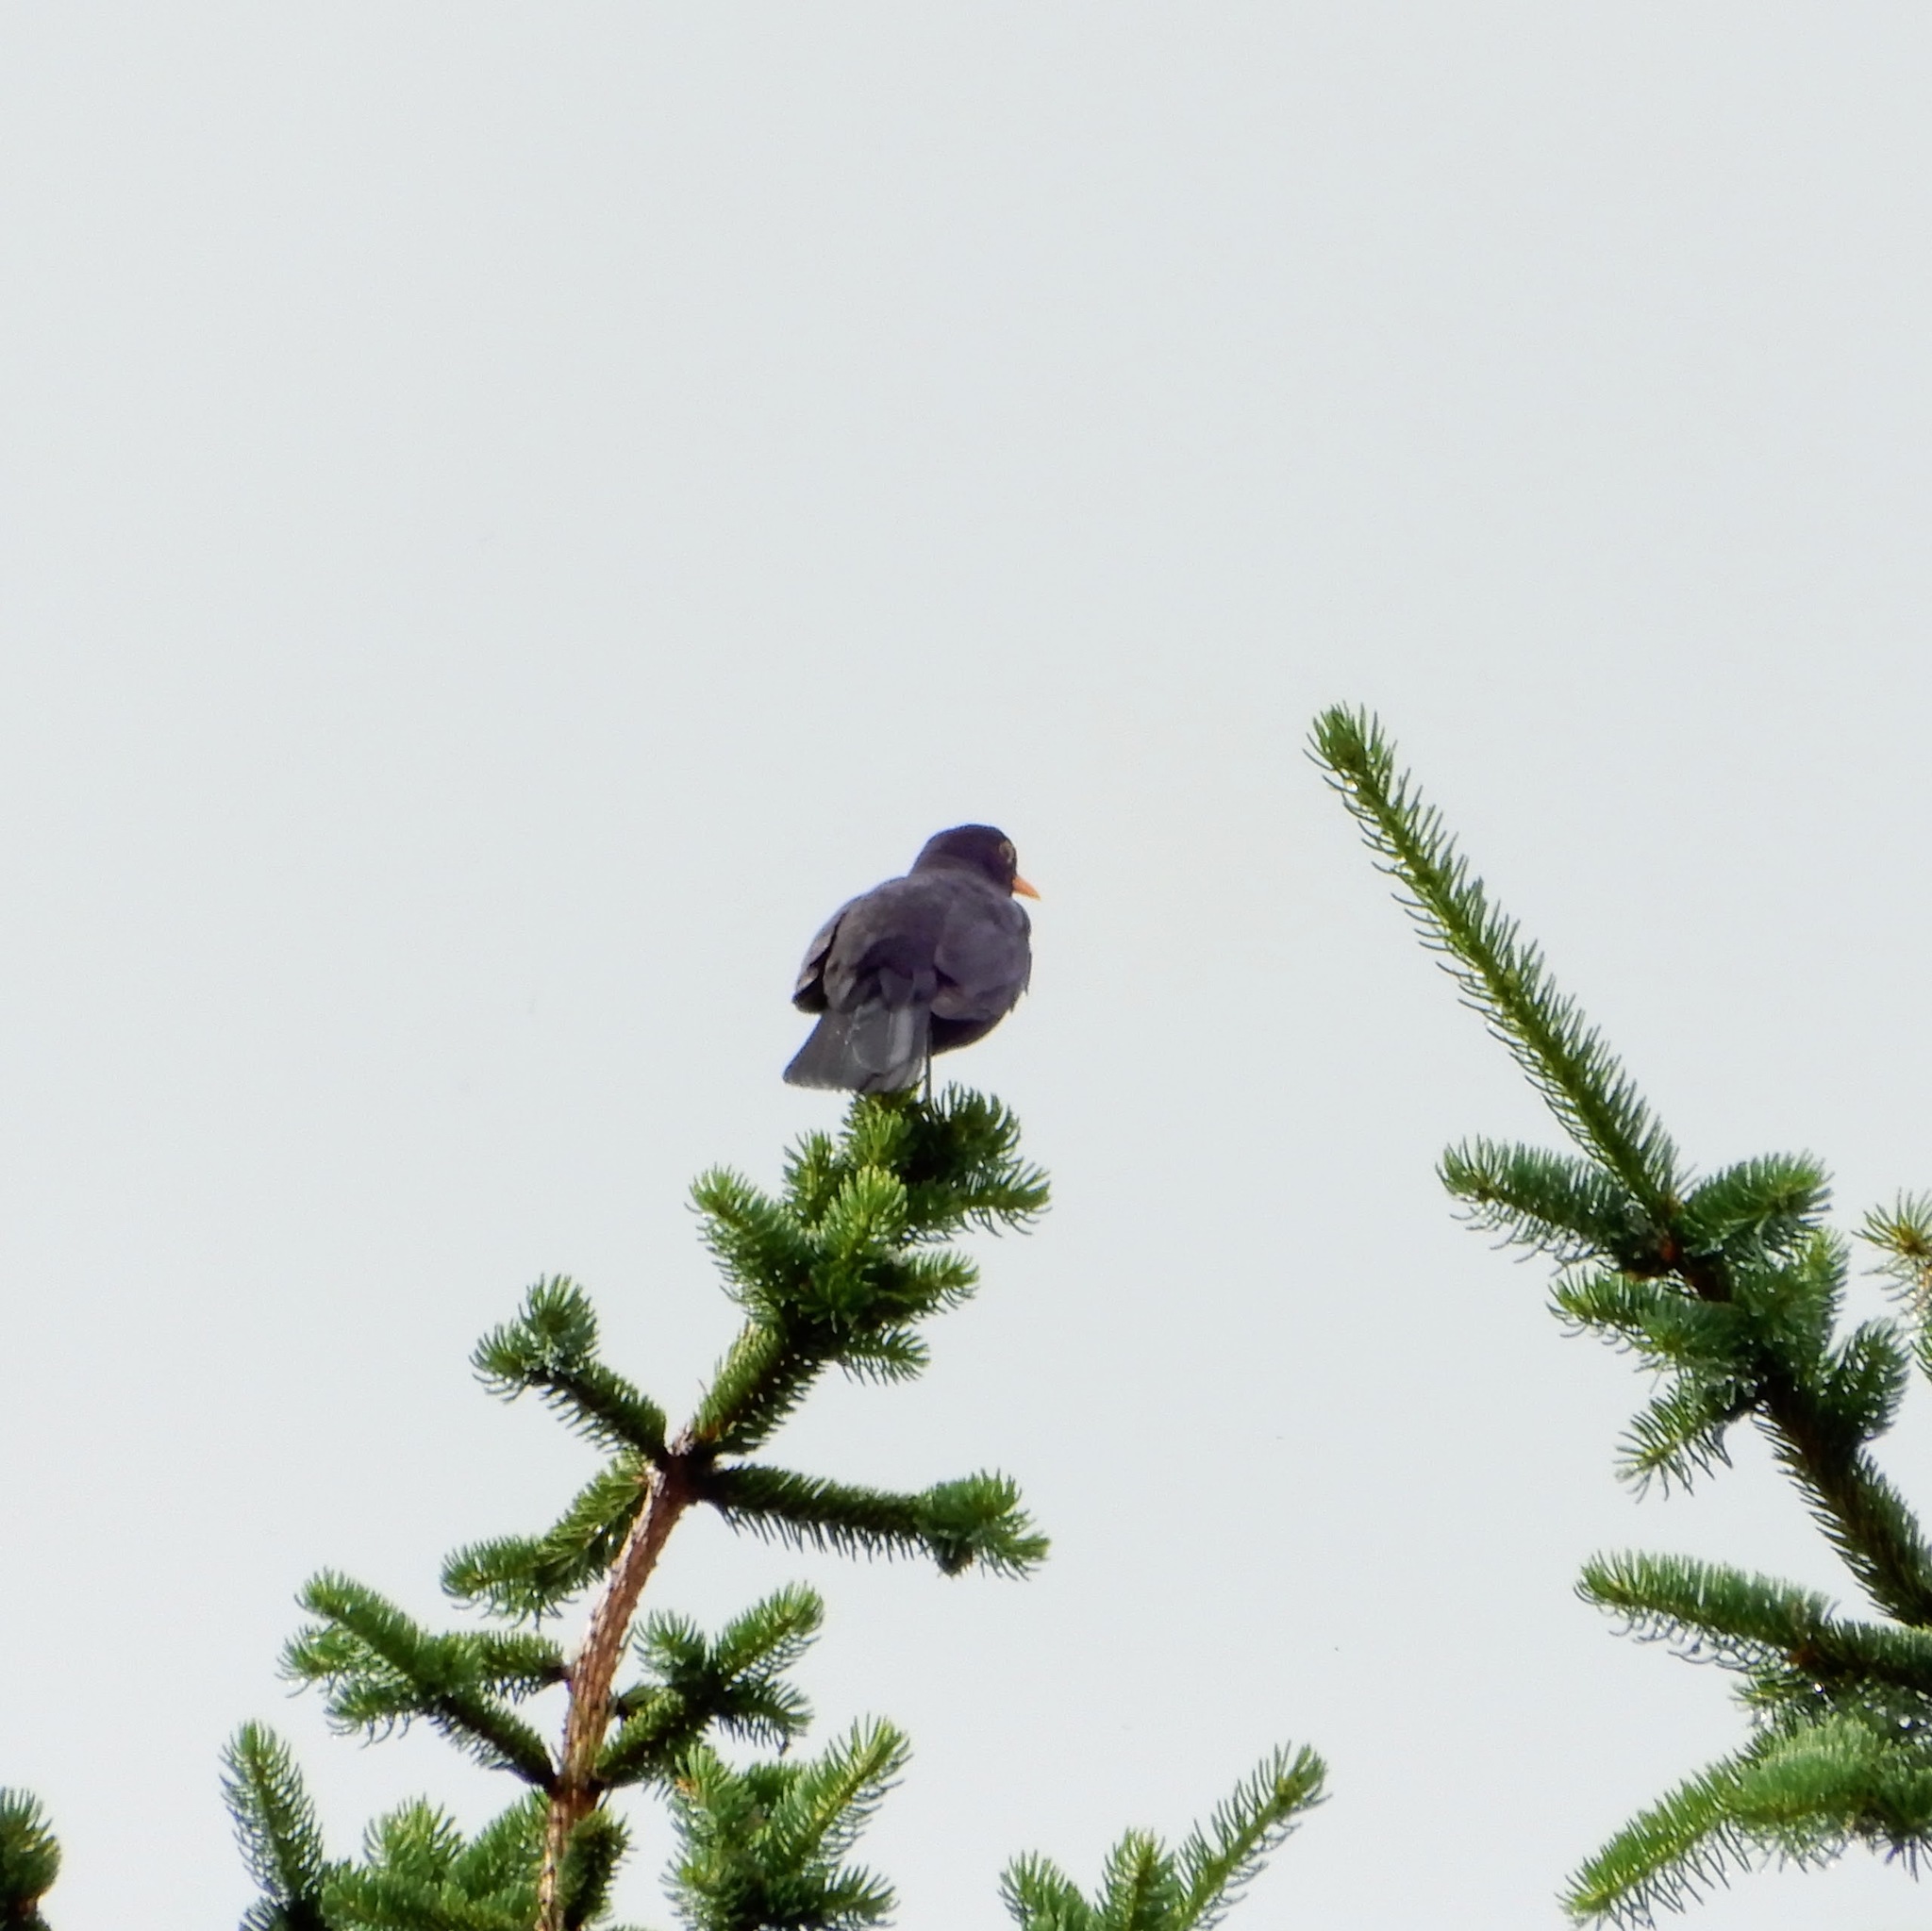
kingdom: Animalia
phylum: Chordata
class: Aves
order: Passeriformes
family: Turdidae
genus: Turdus
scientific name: Turdus merula
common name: Common blackbird
